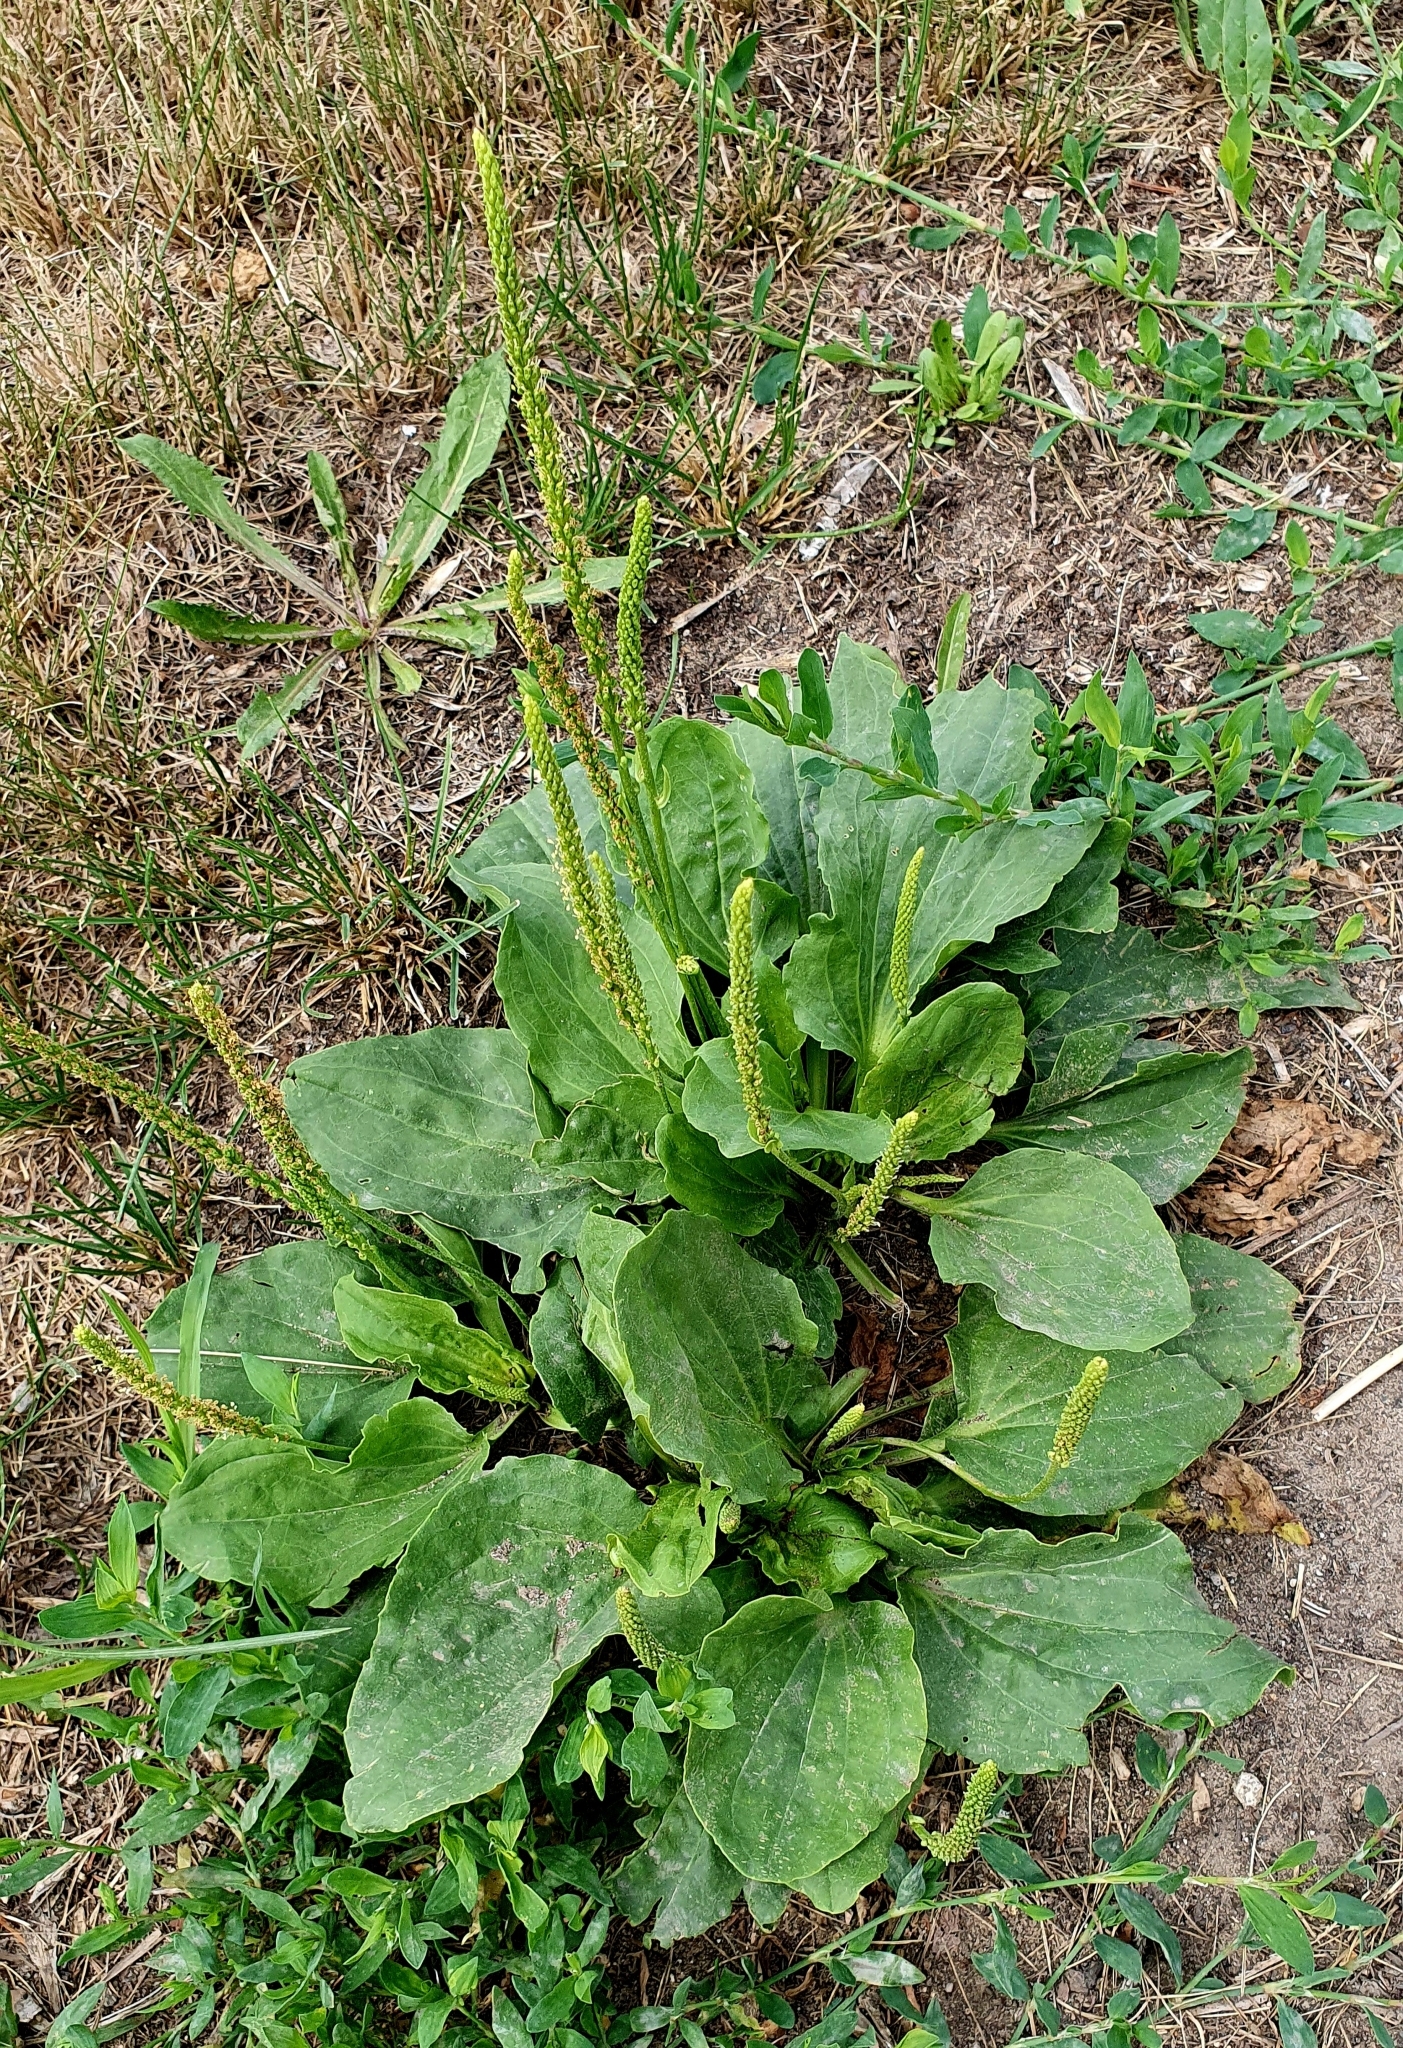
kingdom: Plantae
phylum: Tracheophyta
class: Magnoliopsida
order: Lamiales
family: Plantaginaceae
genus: Plantago
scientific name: Plantago major
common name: Common plantain
